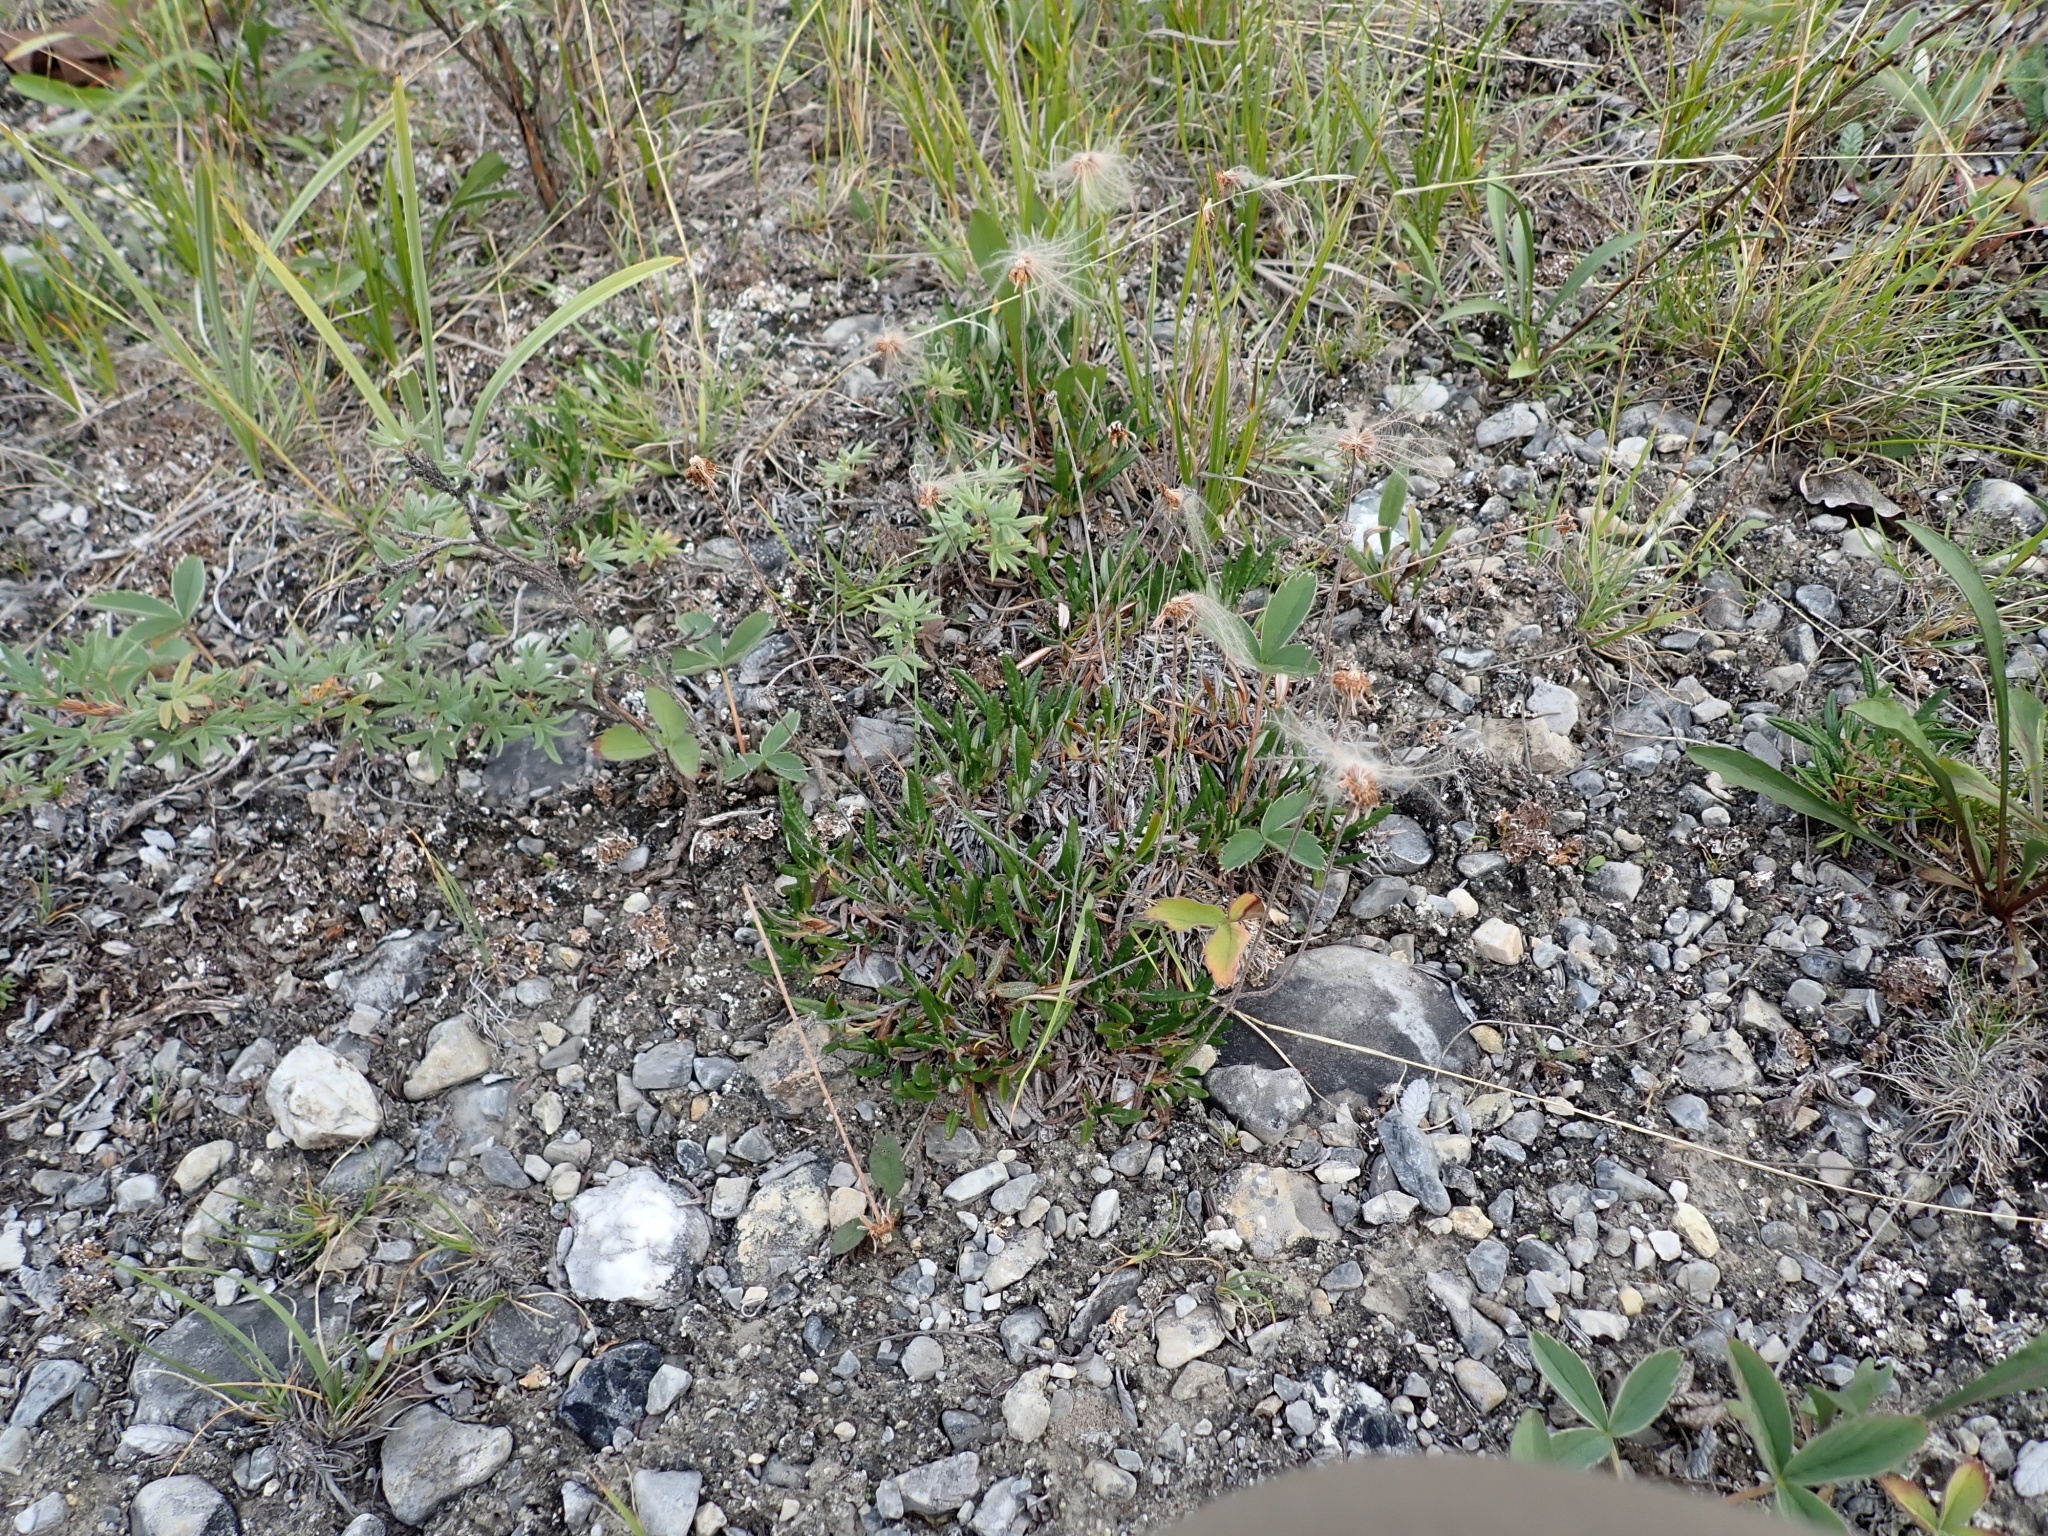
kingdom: Plantae
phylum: Tracheophyta
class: Magnoliopsida
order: Rosales
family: Rosaceae
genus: Dryas
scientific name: Dryas integrifolia
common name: Entire-leaved mountain avens
